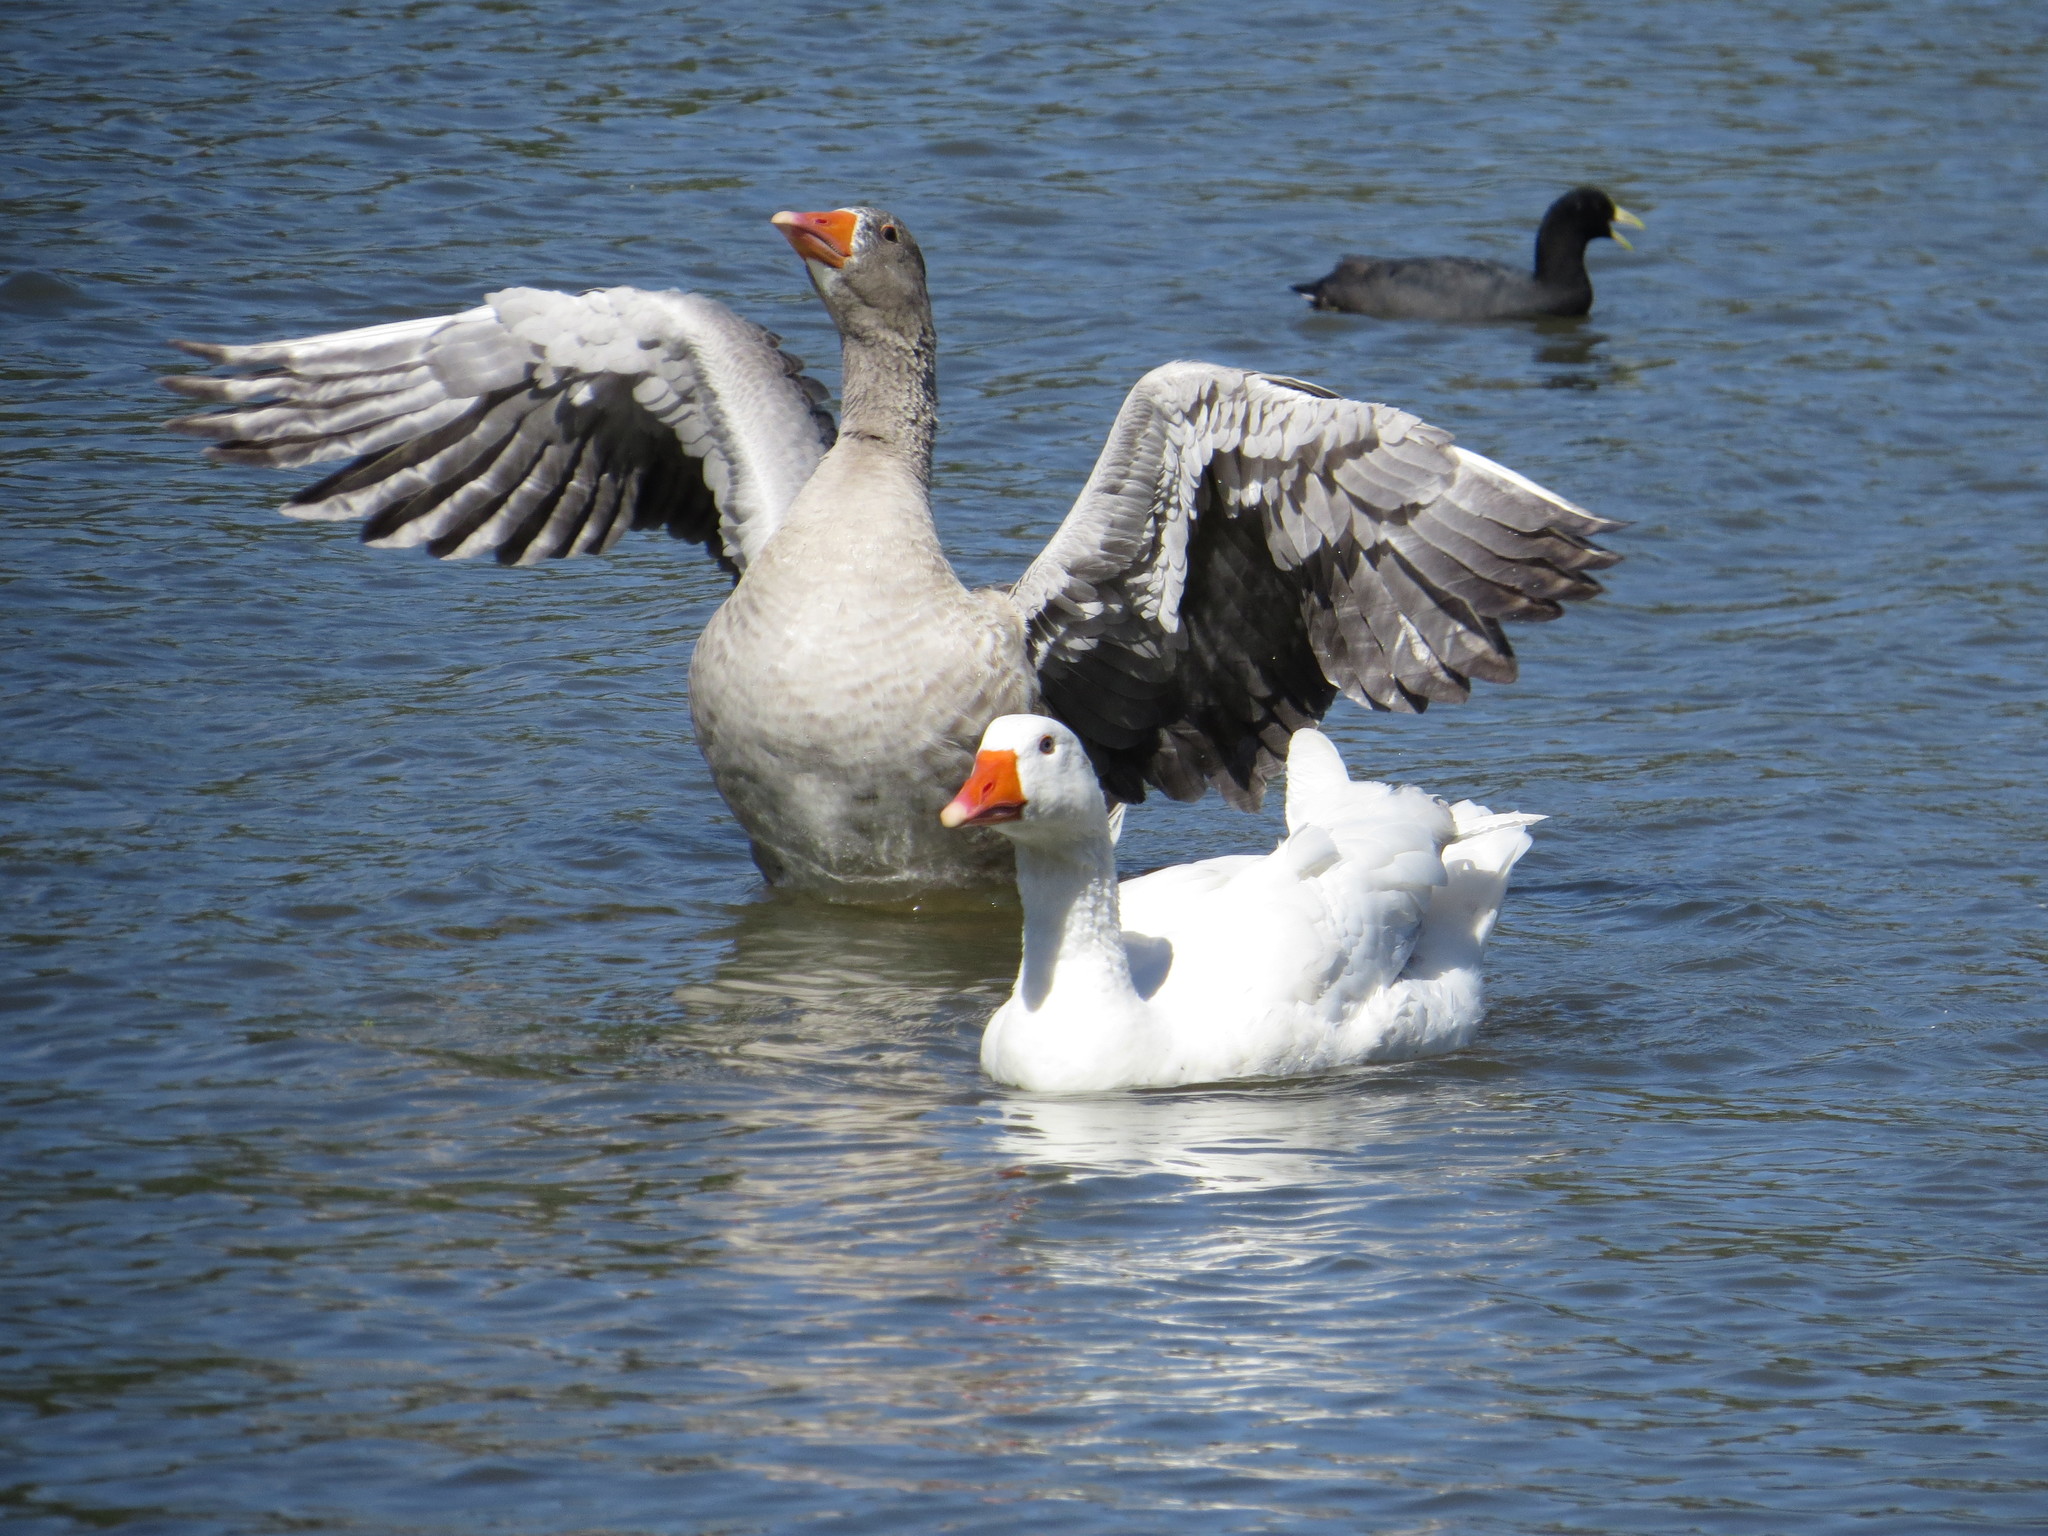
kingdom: Animalia
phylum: Chordata
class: Aves
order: Anseriformes
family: Anatidae
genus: Anser
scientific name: Anser anser
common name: Greylag goose
